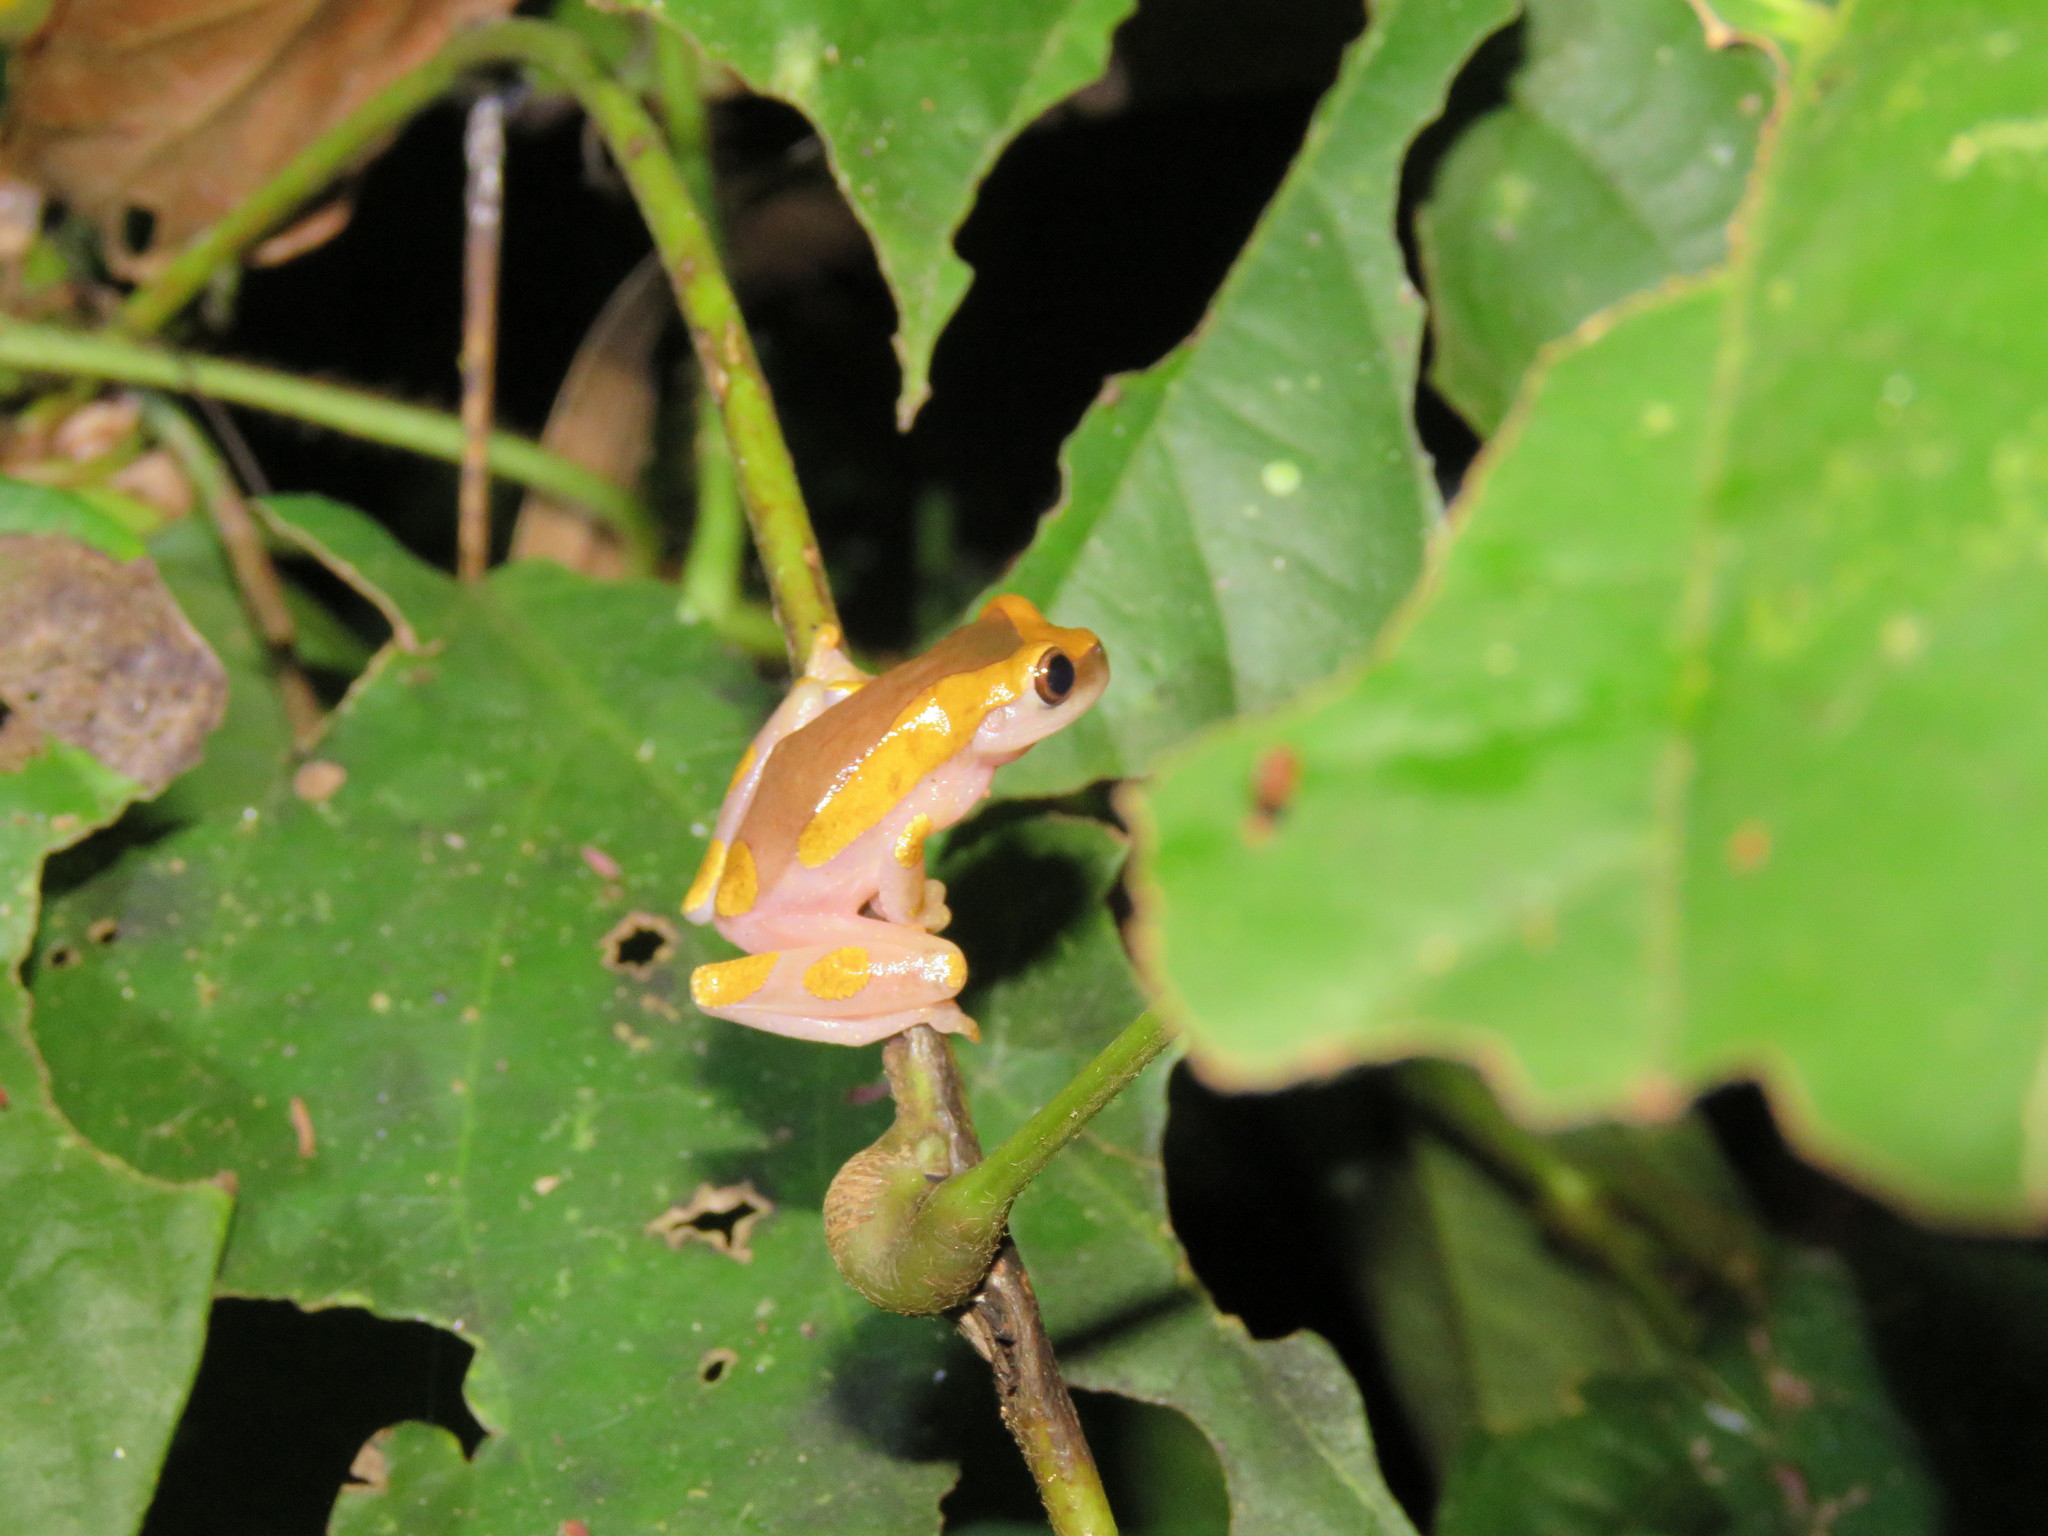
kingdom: Animalia
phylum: Chordata
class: Amphibia
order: Anura
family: Hylidae
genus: Dendropsophus
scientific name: Dendropsophus arndti
